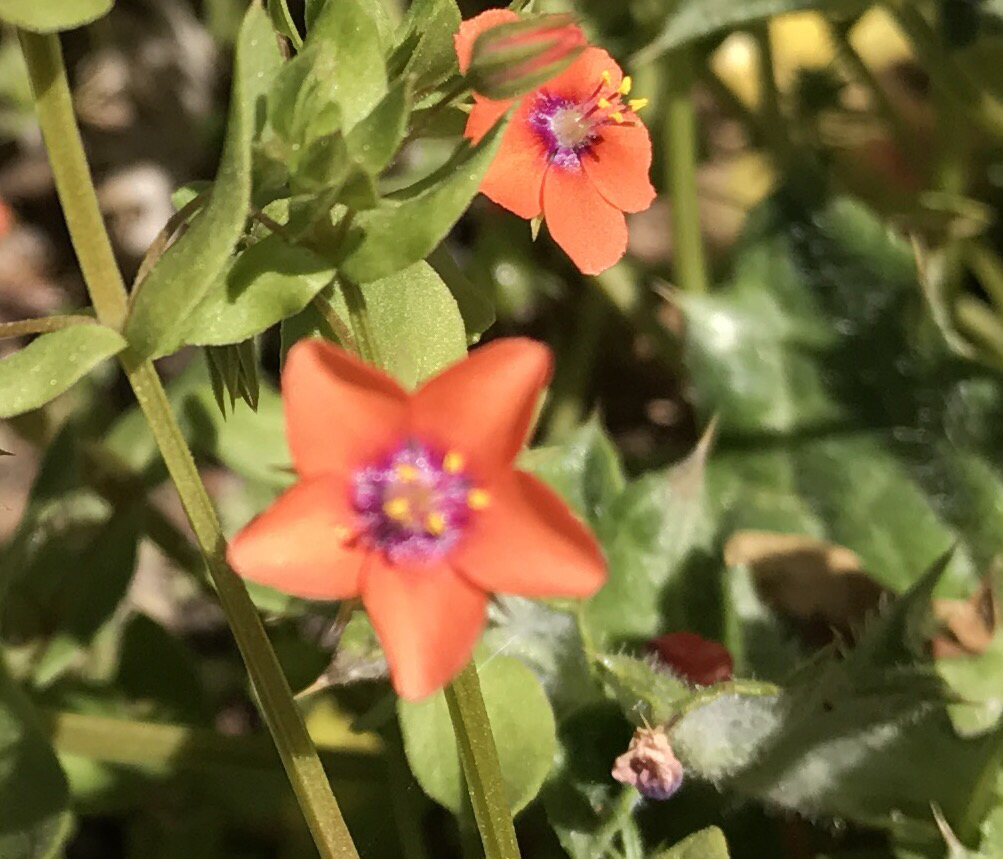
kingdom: Plantae
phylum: Tracheophyta
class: Magnoliopsida
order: Ericales
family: Primulaceae
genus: Lysimachia
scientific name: Lysimachia arvensis
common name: Scarlet pimpernel
